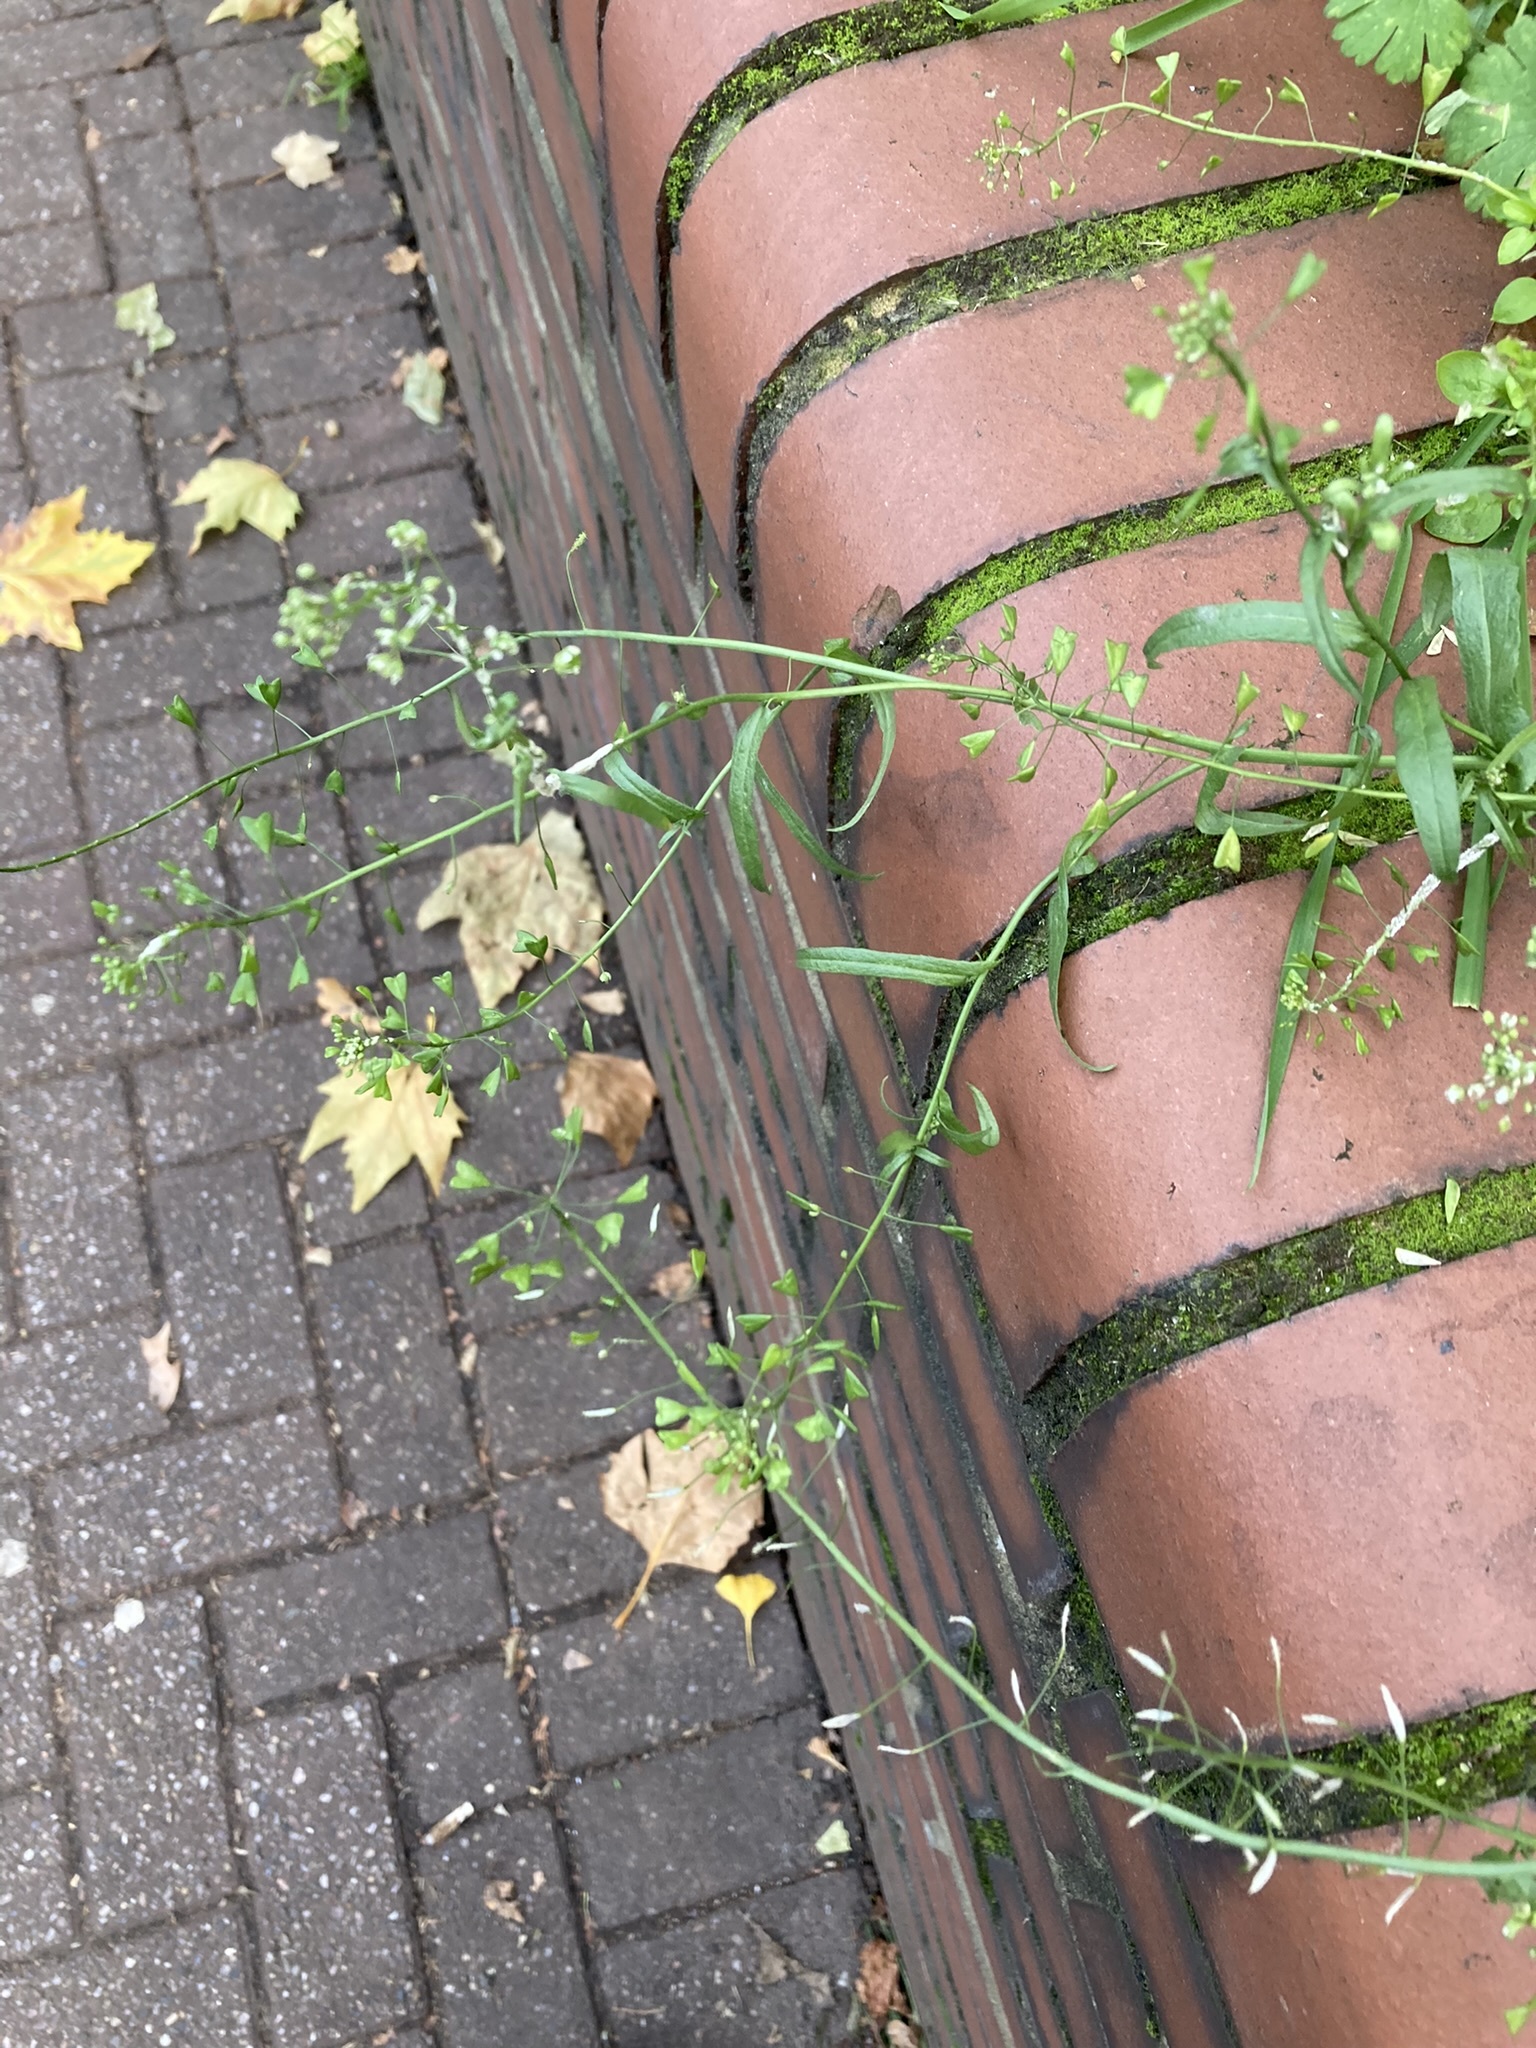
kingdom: Plantae
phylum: Tracheophyta
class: Magnoliopsida
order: Brassicales
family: Brassicaceae
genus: Capsella
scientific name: Capsella bursa-pastoris
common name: Shepherd's purse
